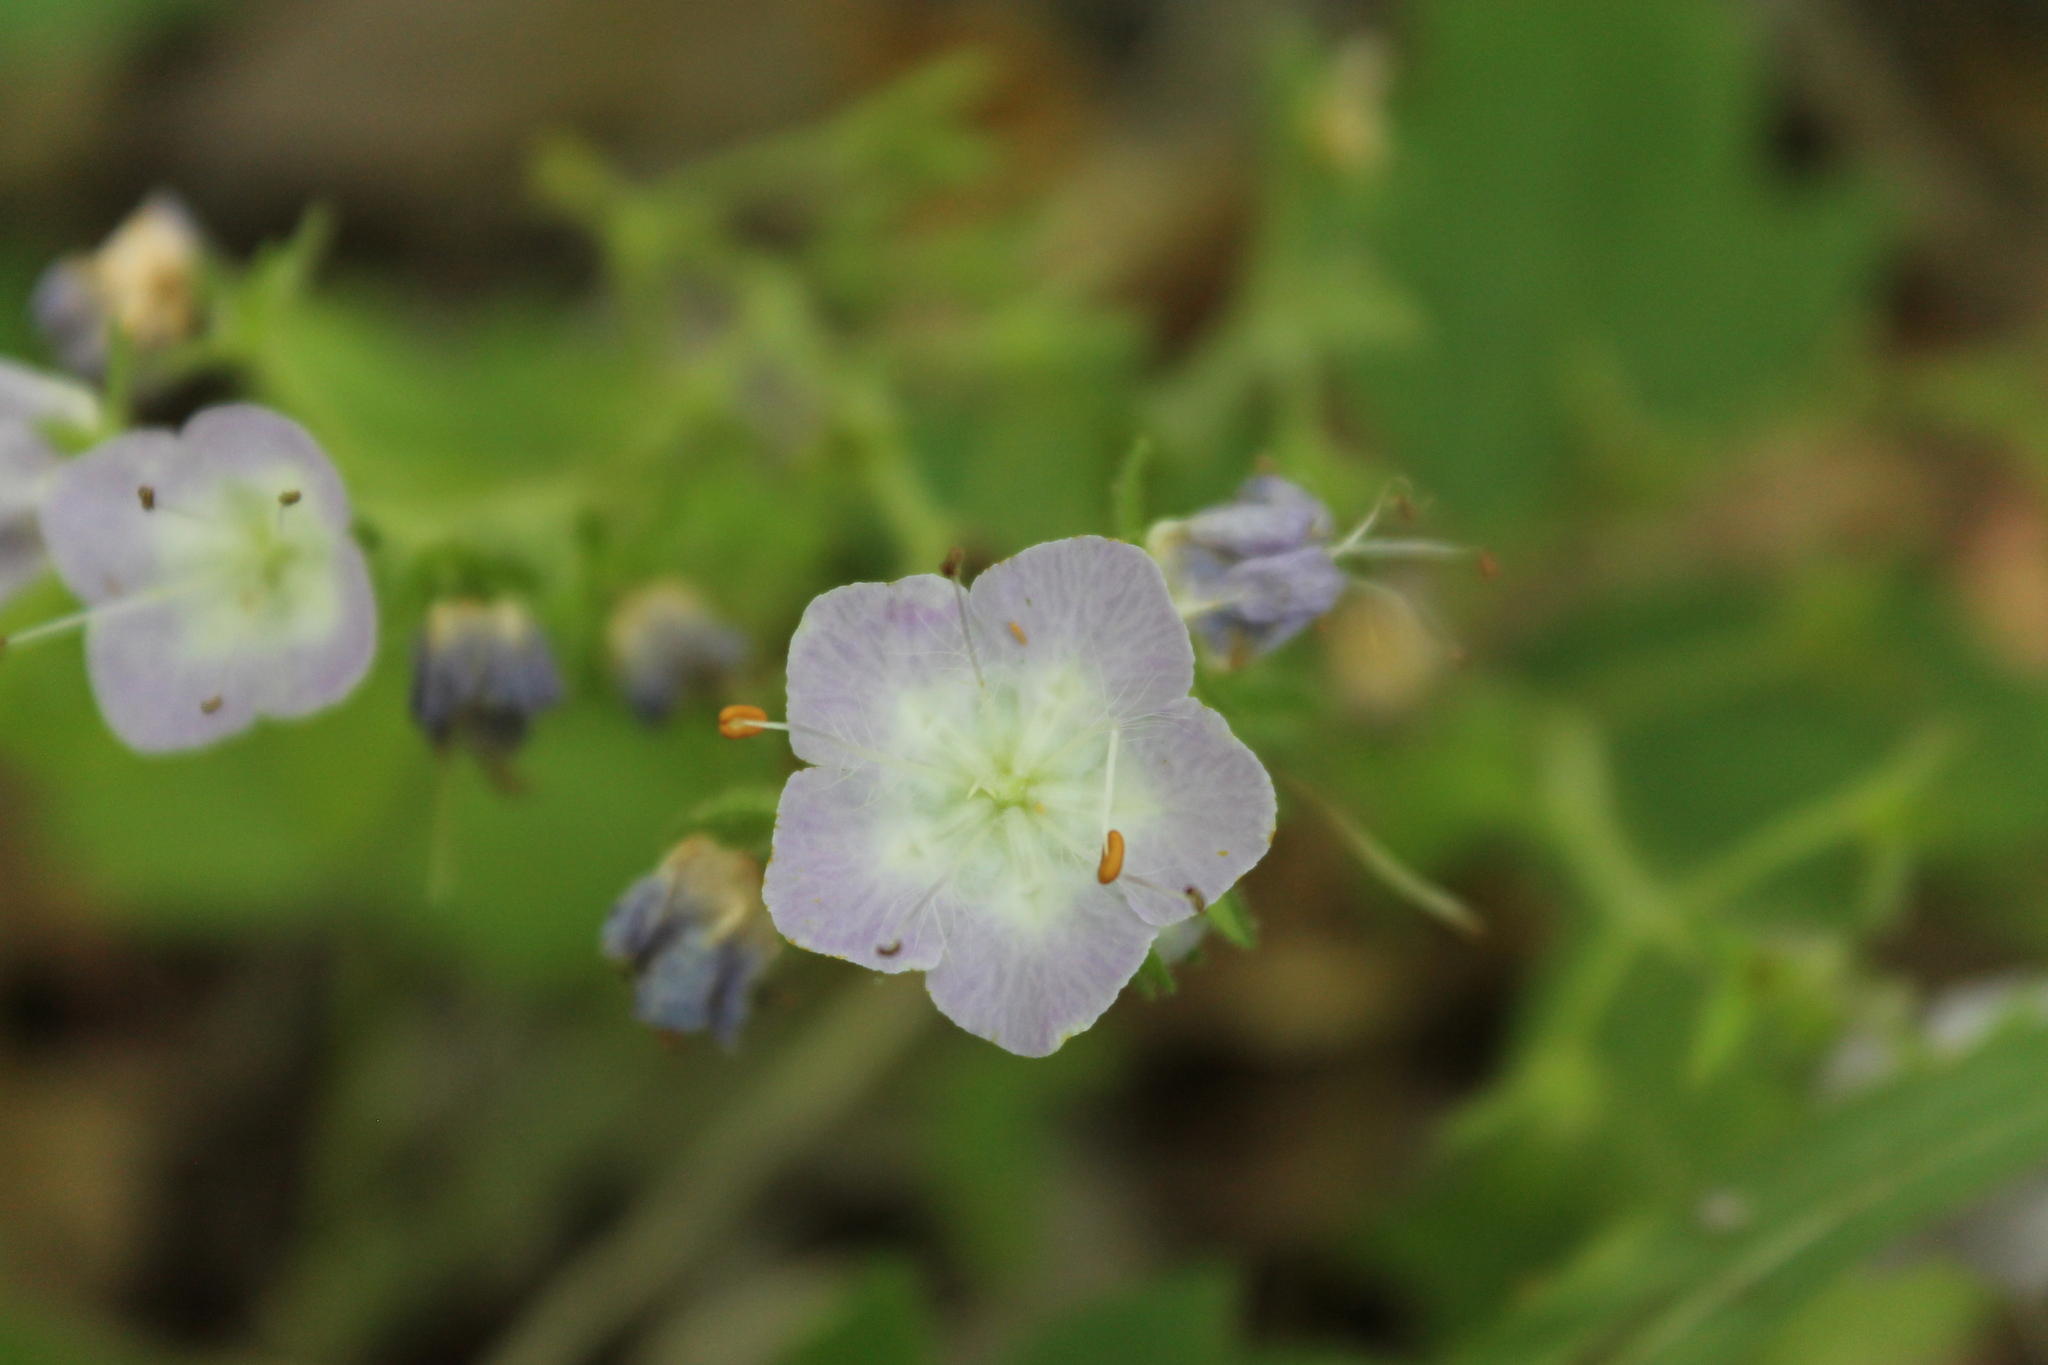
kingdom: Plantae
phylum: Tracheophyta
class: Magnoliopsida
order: Boraginales
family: Hydrophyllaceae
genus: Phacelia
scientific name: Phacelia bipinnatifida
